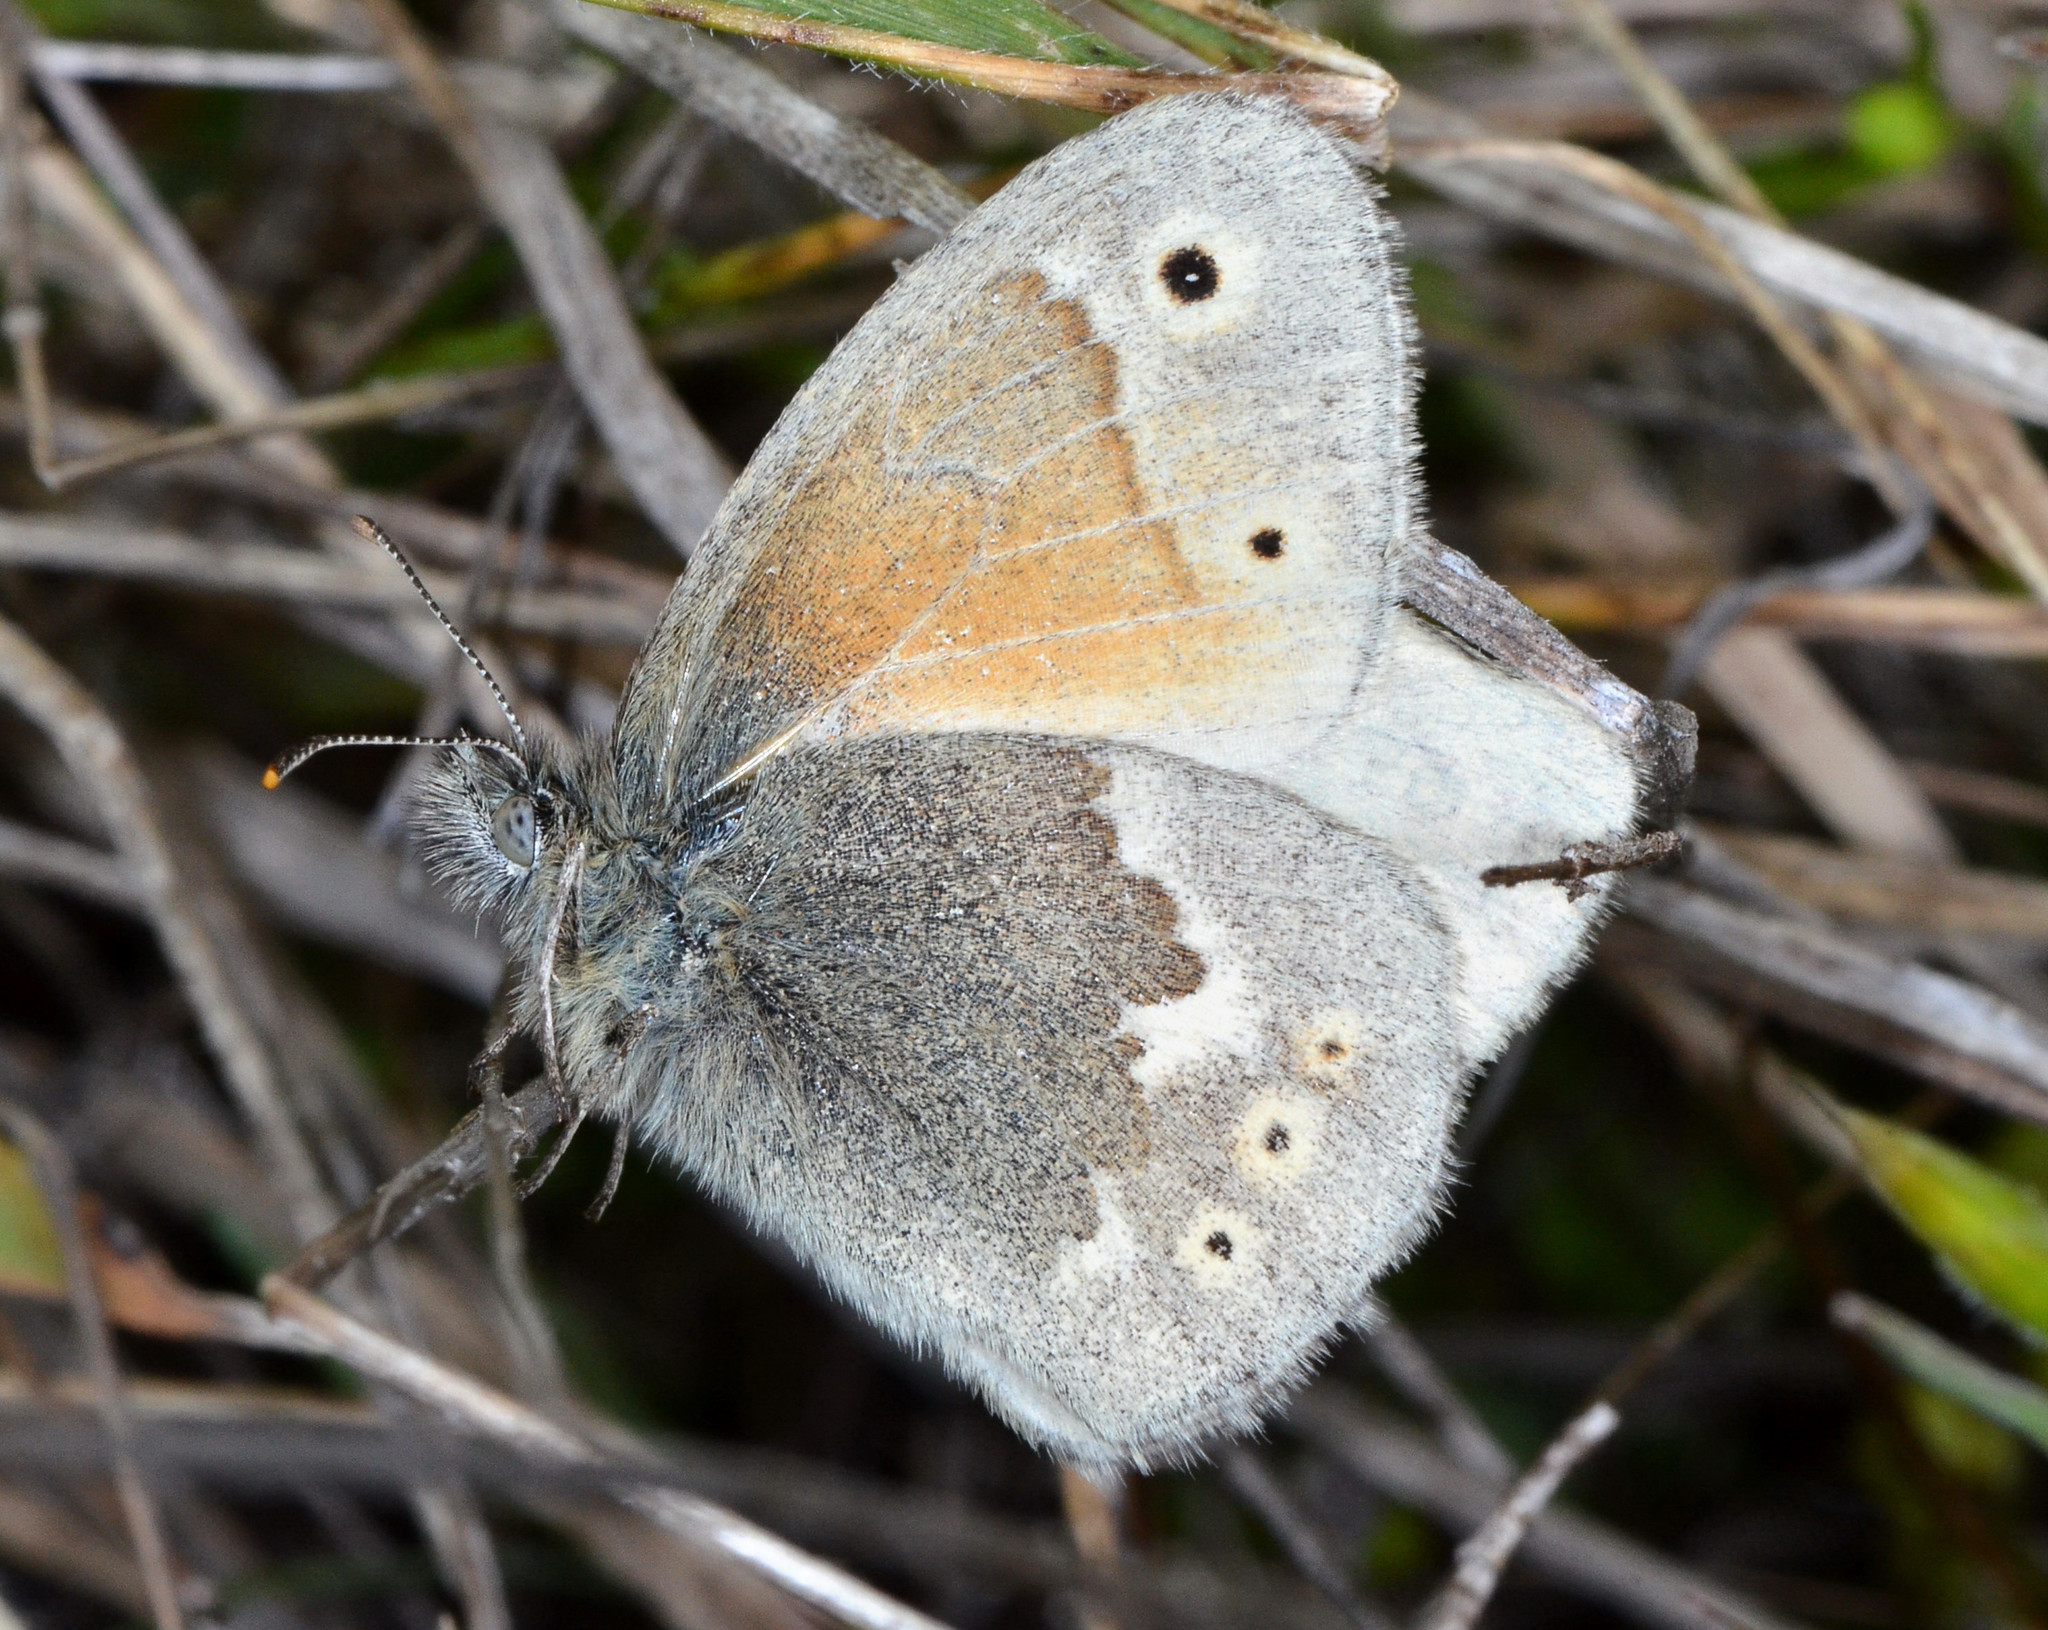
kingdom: Animalia
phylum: Arthropoda
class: Insecta
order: Lepidoptera
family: Nymphalidae
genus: Coenonympha
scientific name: Coenonympha california
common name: Common ringlet
